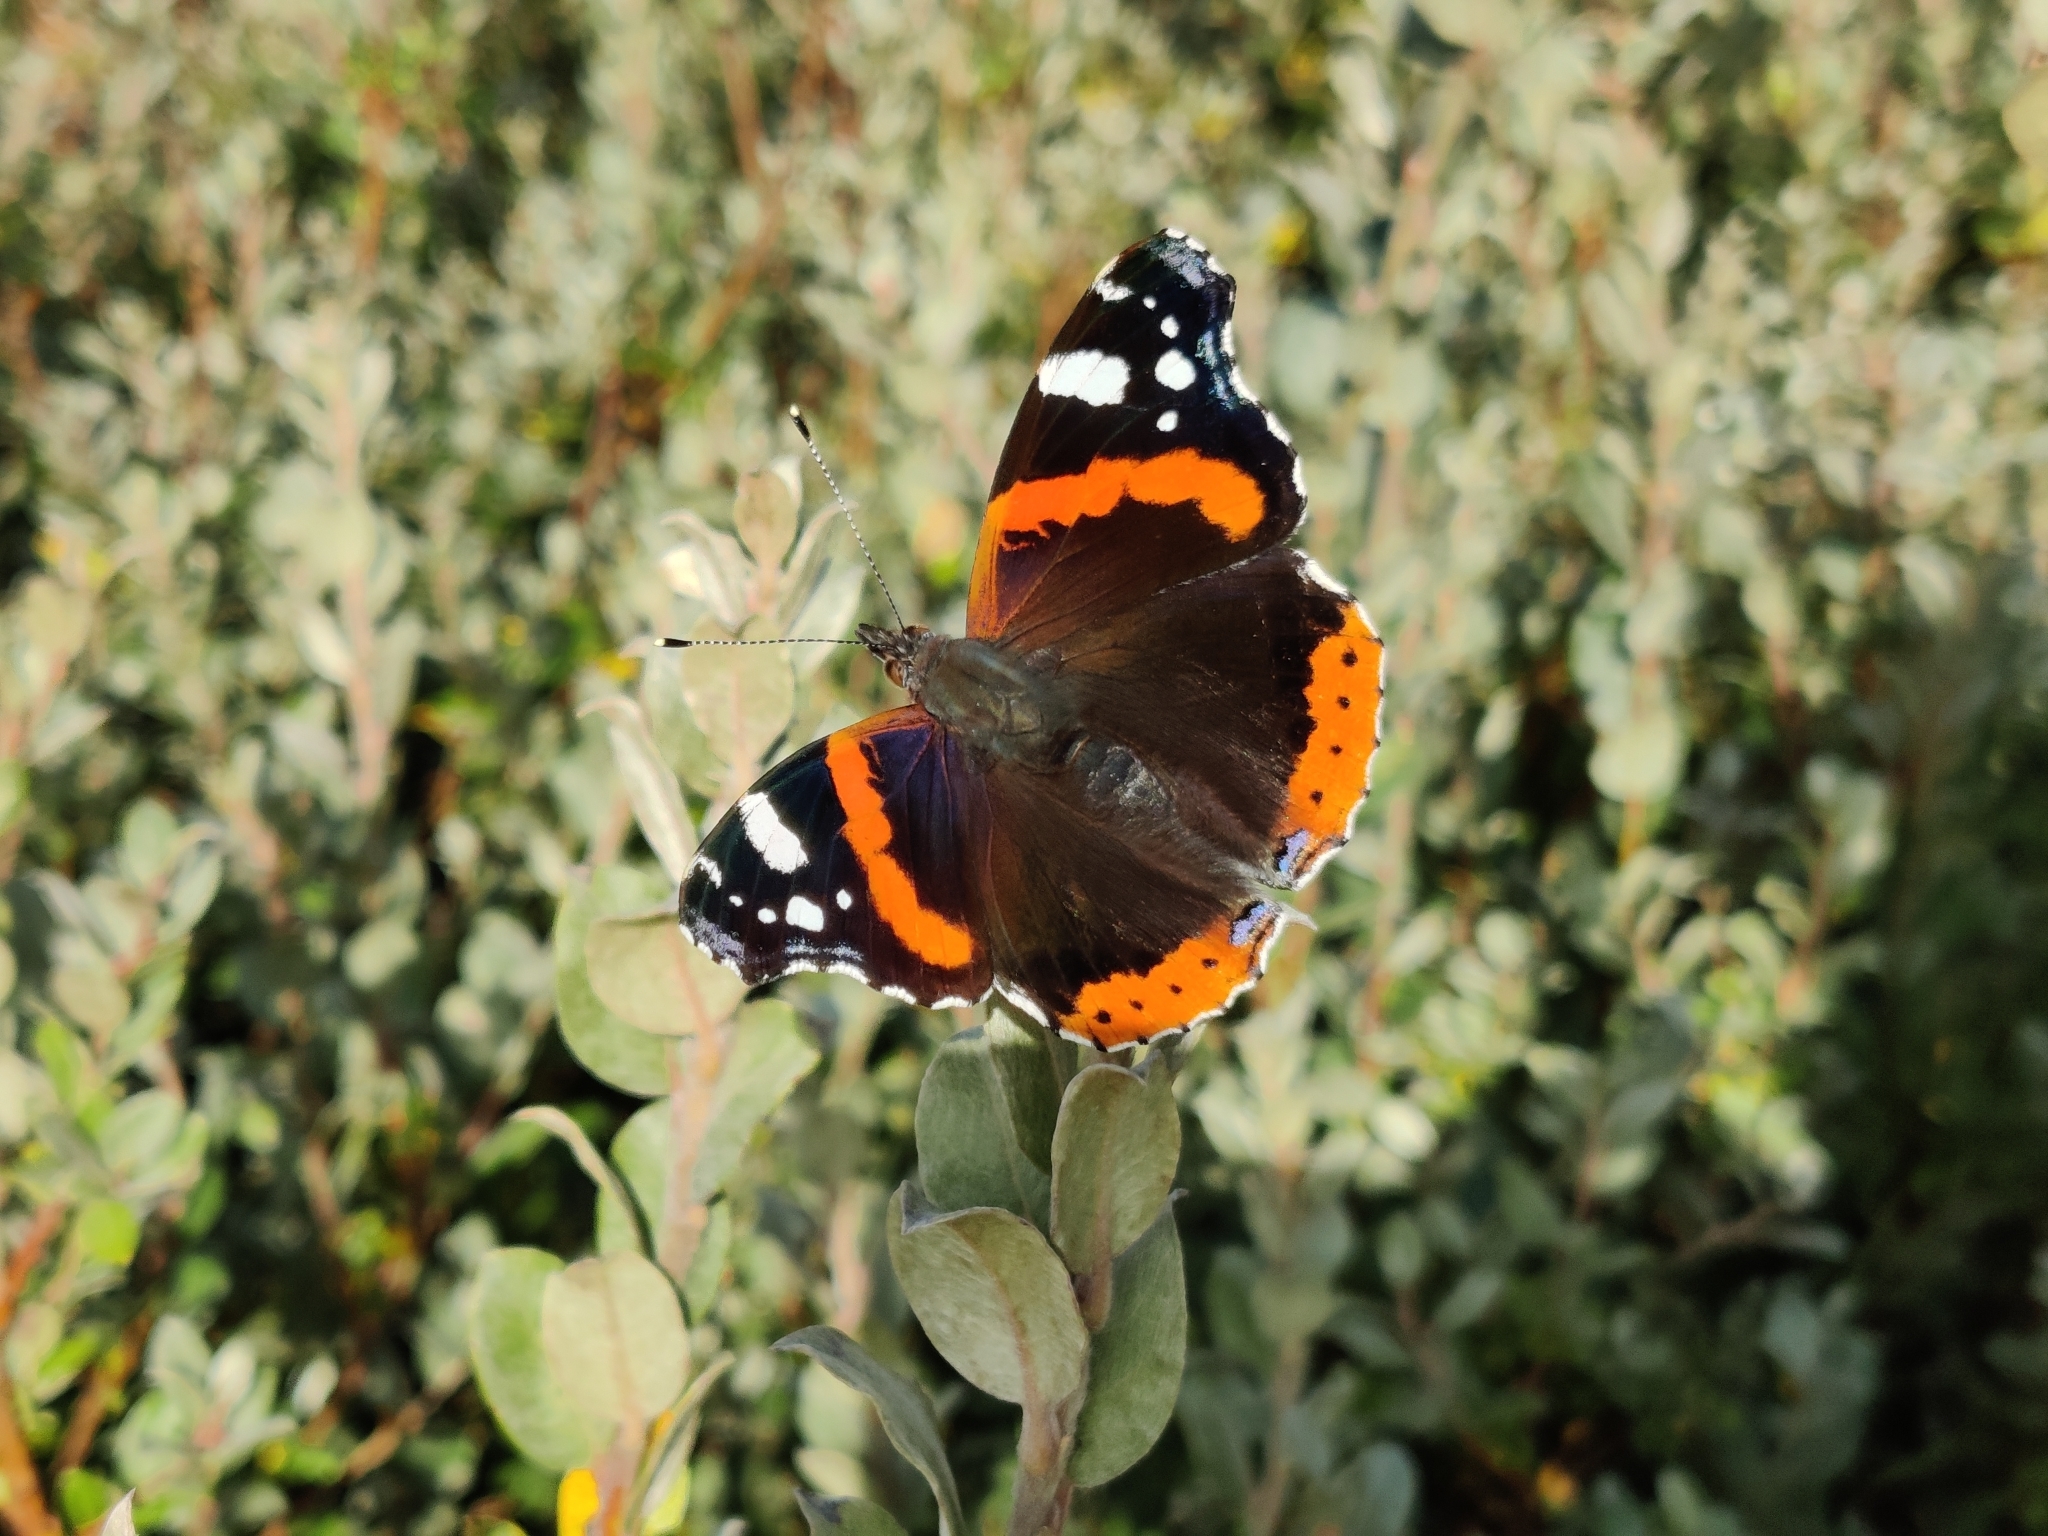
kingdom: Animalia
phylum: Arthropoda
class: Insecta
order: Lepidoptera
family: Nymphalidae
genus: Vanessa
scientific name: Vanessa atalanta
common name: Red admiral
